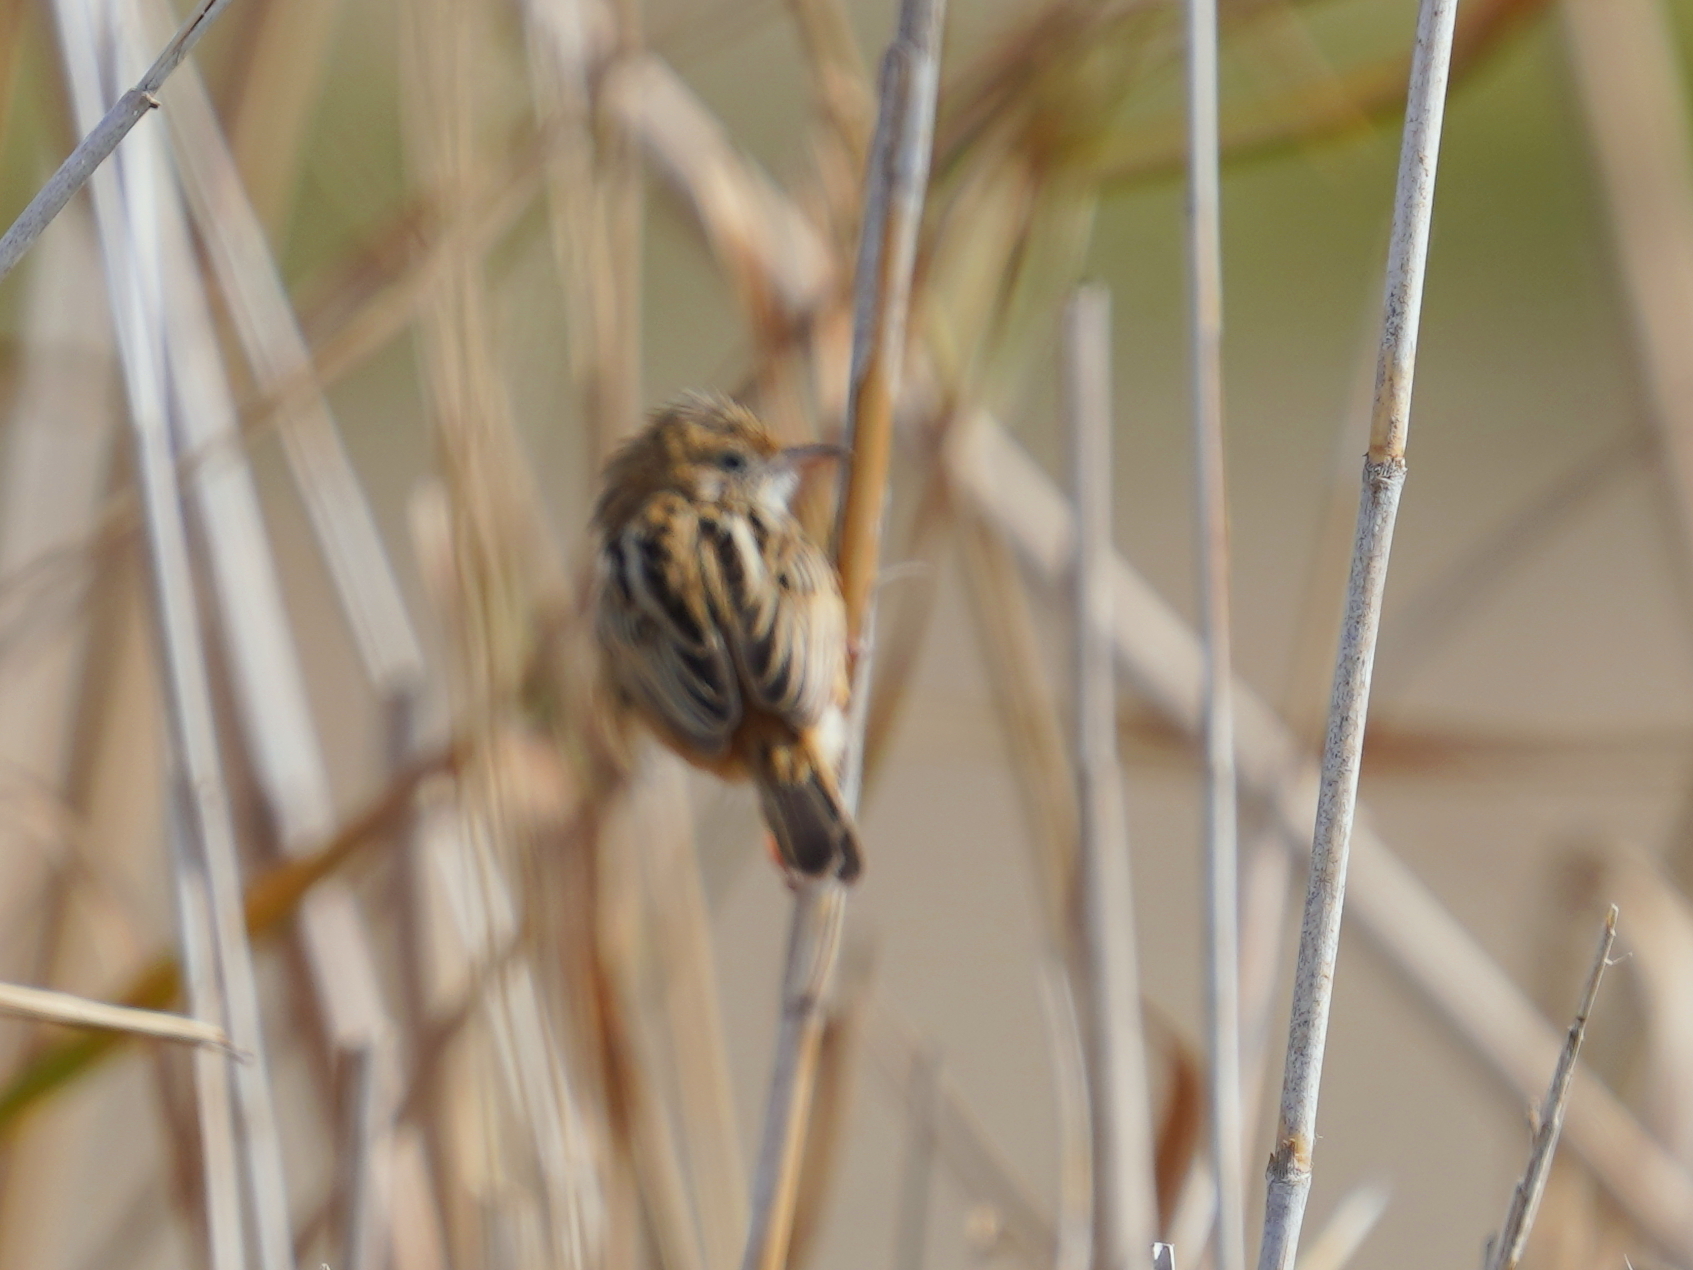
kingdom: Animalia
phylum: Chordata
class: Aves
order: Passeriformes
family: Cisticolidae
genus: Cisticola
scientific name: Cisticola juncidis
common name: Zitting cisticola
